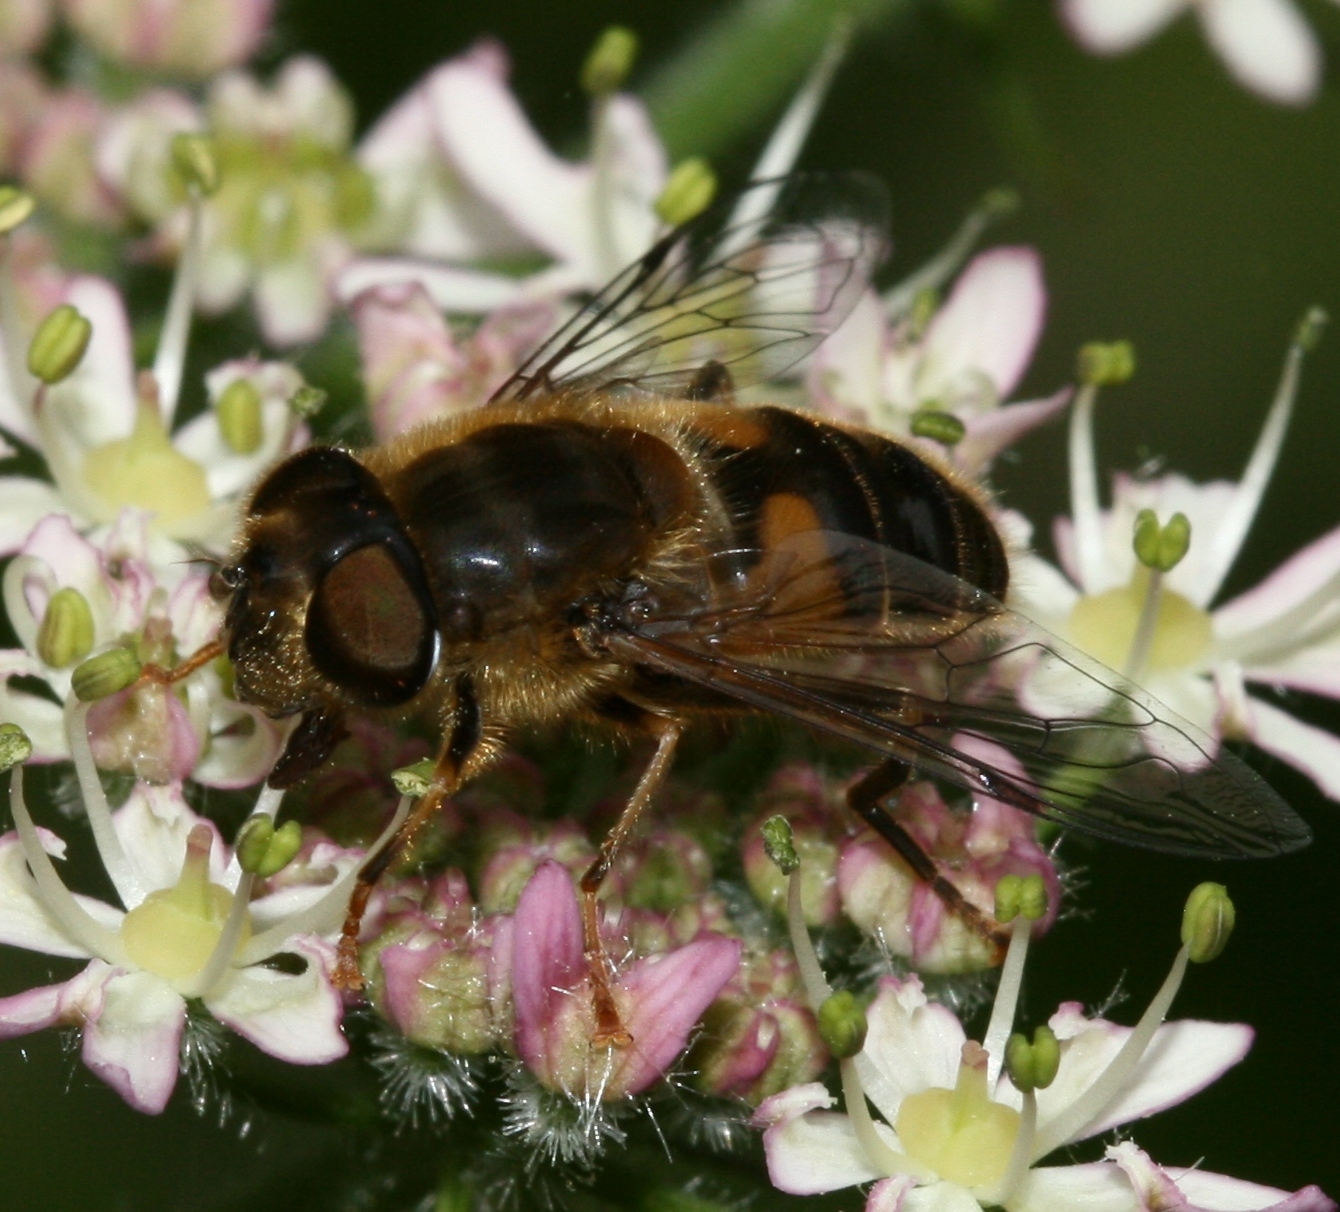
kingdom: Animalia
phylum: Arthropoda
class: Insecta
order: Diptera
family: Syrphidae
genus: Eristalis
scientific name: Eristalis pertinax
